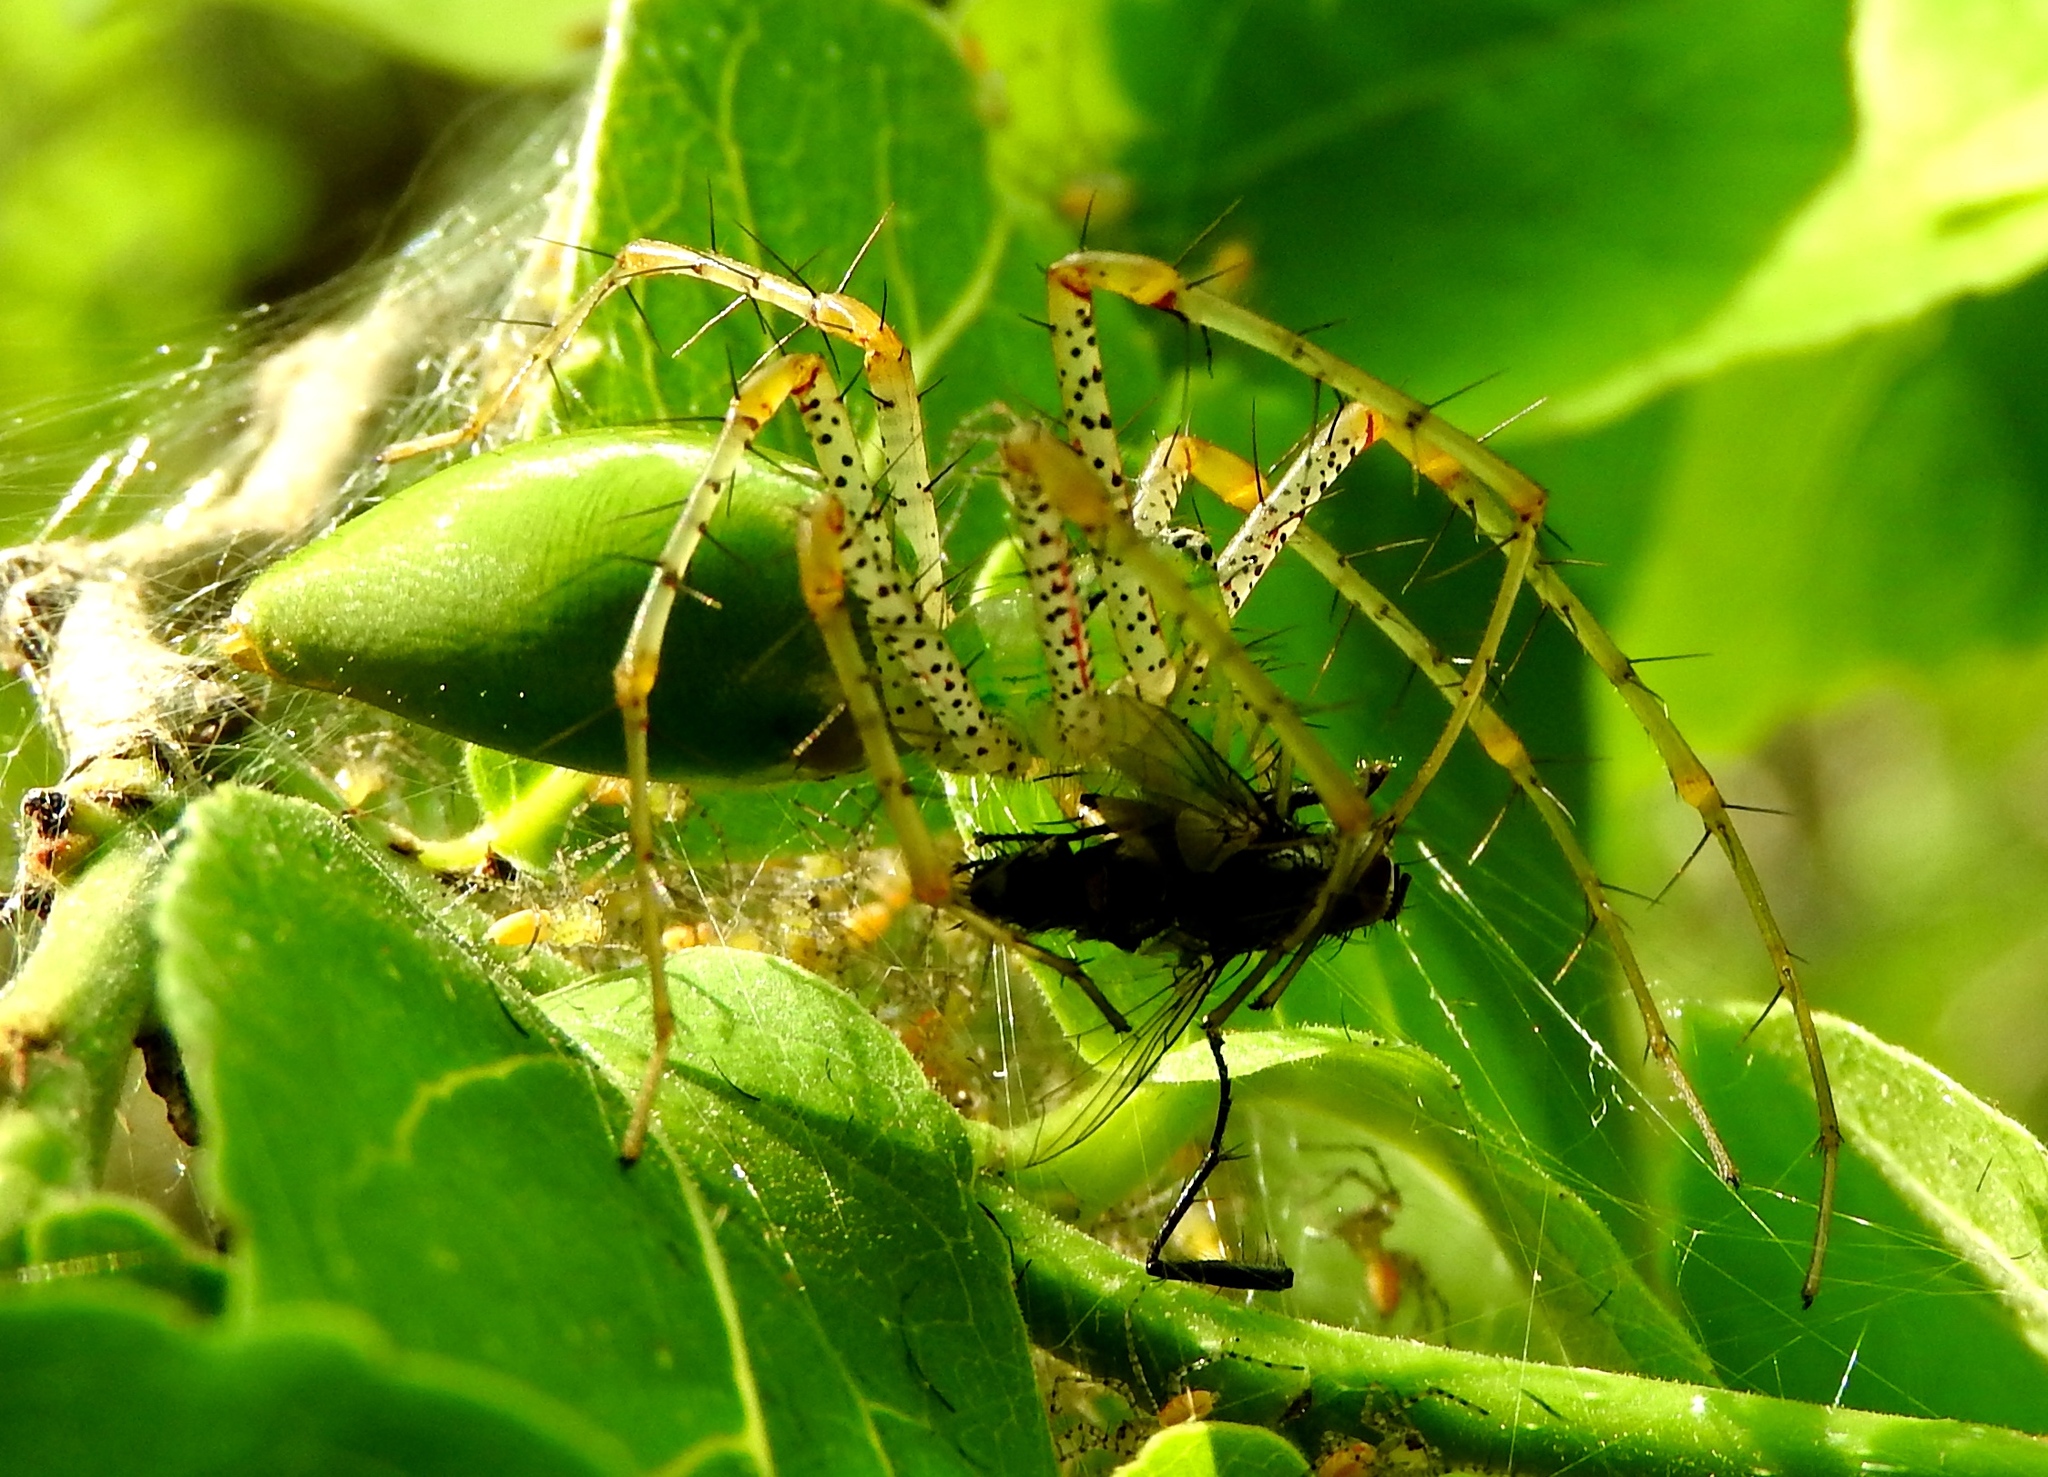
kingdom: Animalia
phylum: Arthropoda
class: Arachnida
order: Araneae
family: Oxyopidae
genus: Peucetia
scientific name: Peucetia viridans
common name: Lynx spiders
